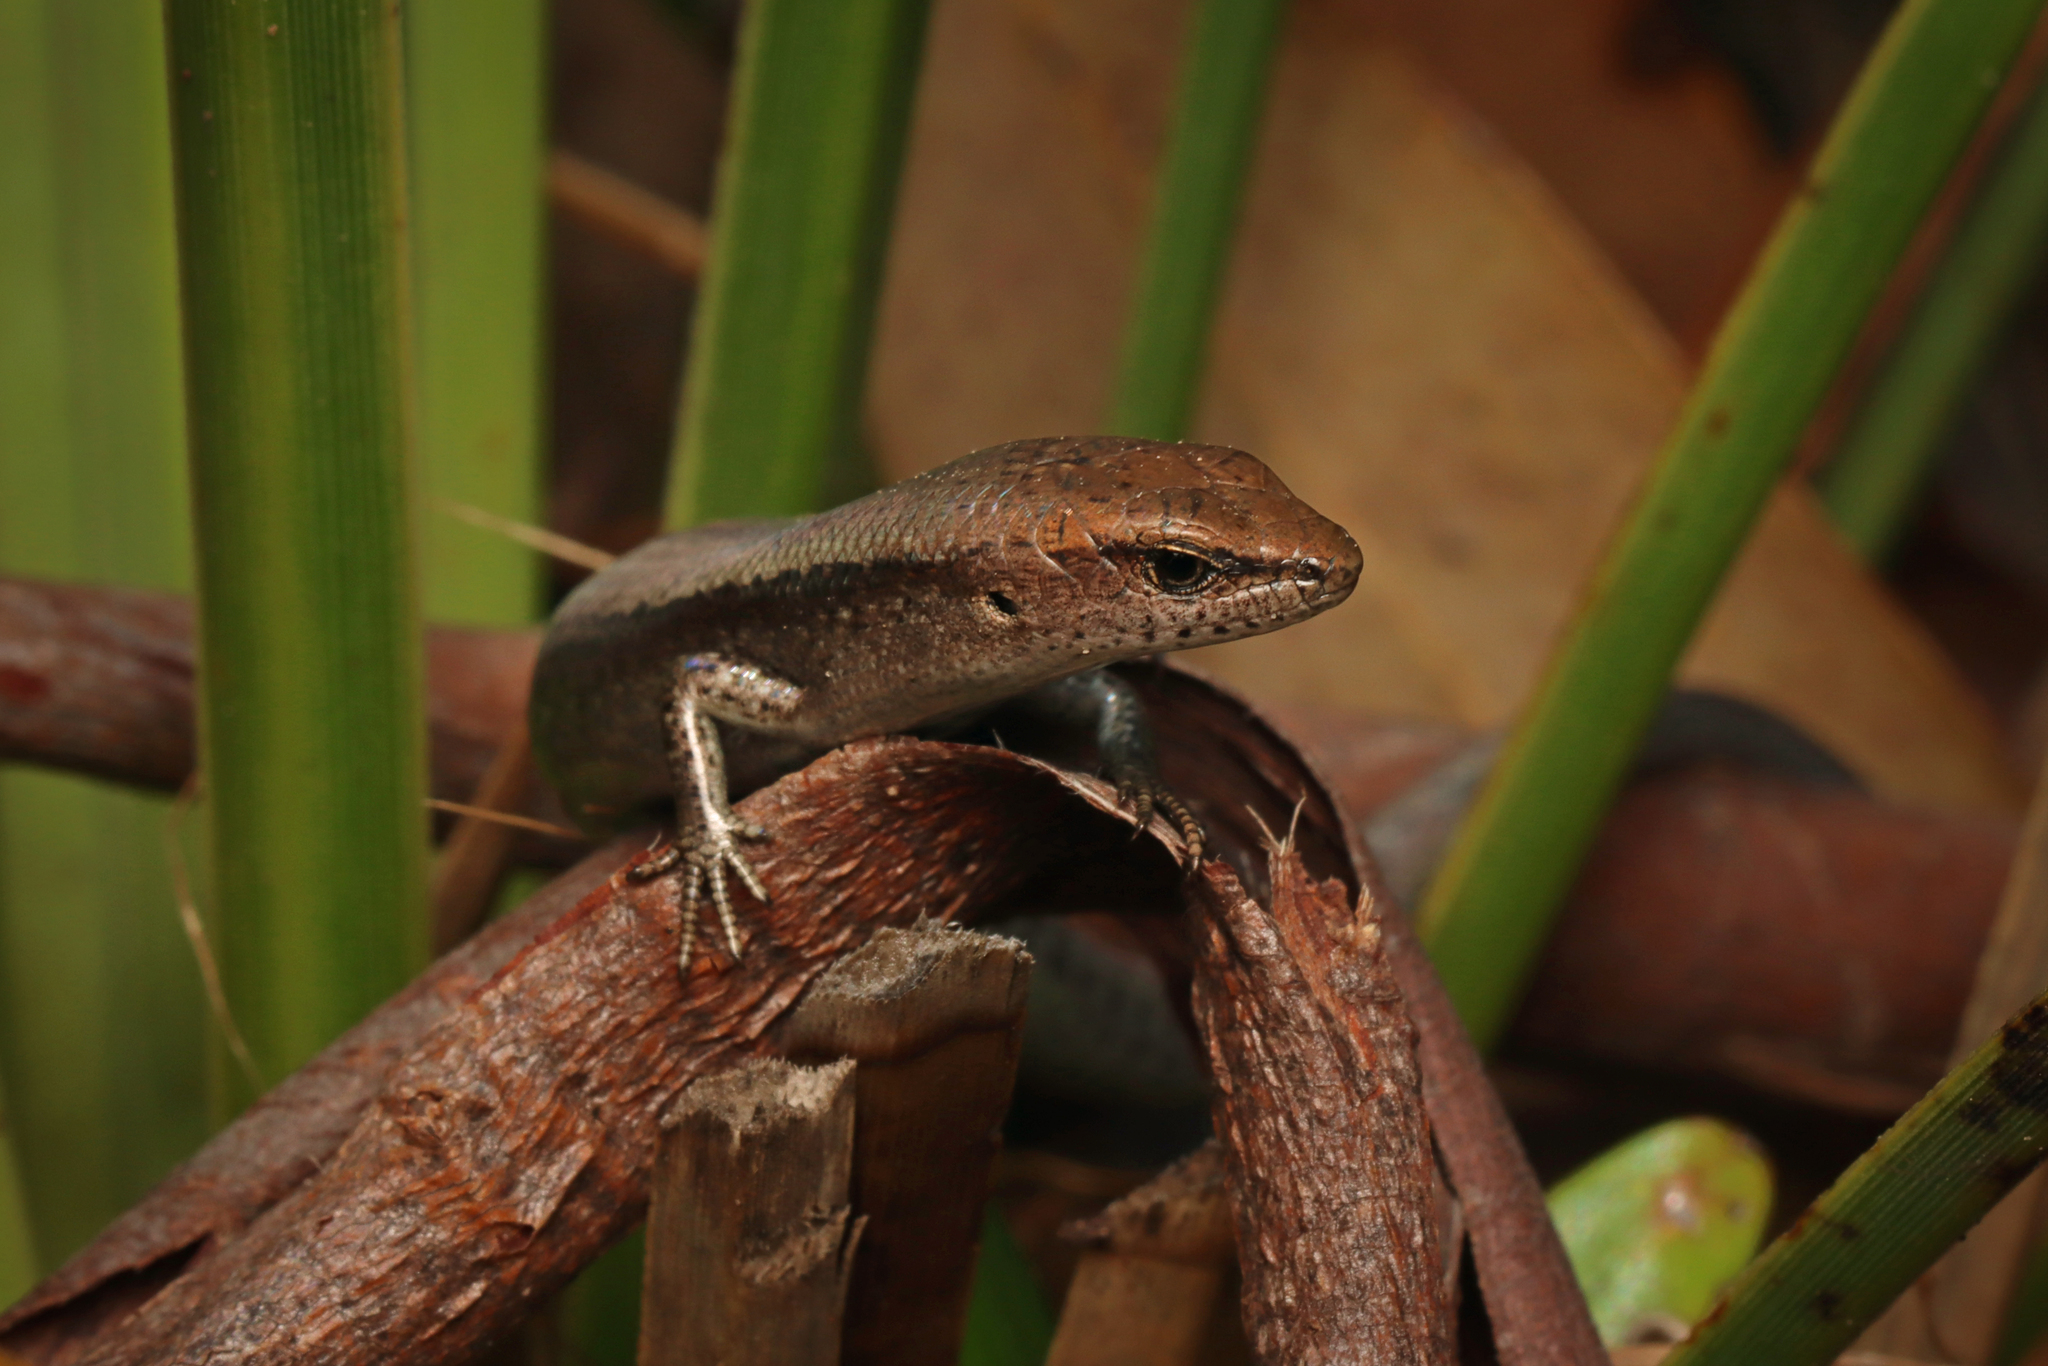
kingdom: Animalia
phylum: Chordata
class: Squamata
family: Scincidae
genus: Lampropholis
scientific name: Lampropholis guichenoti
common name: Garden skink
